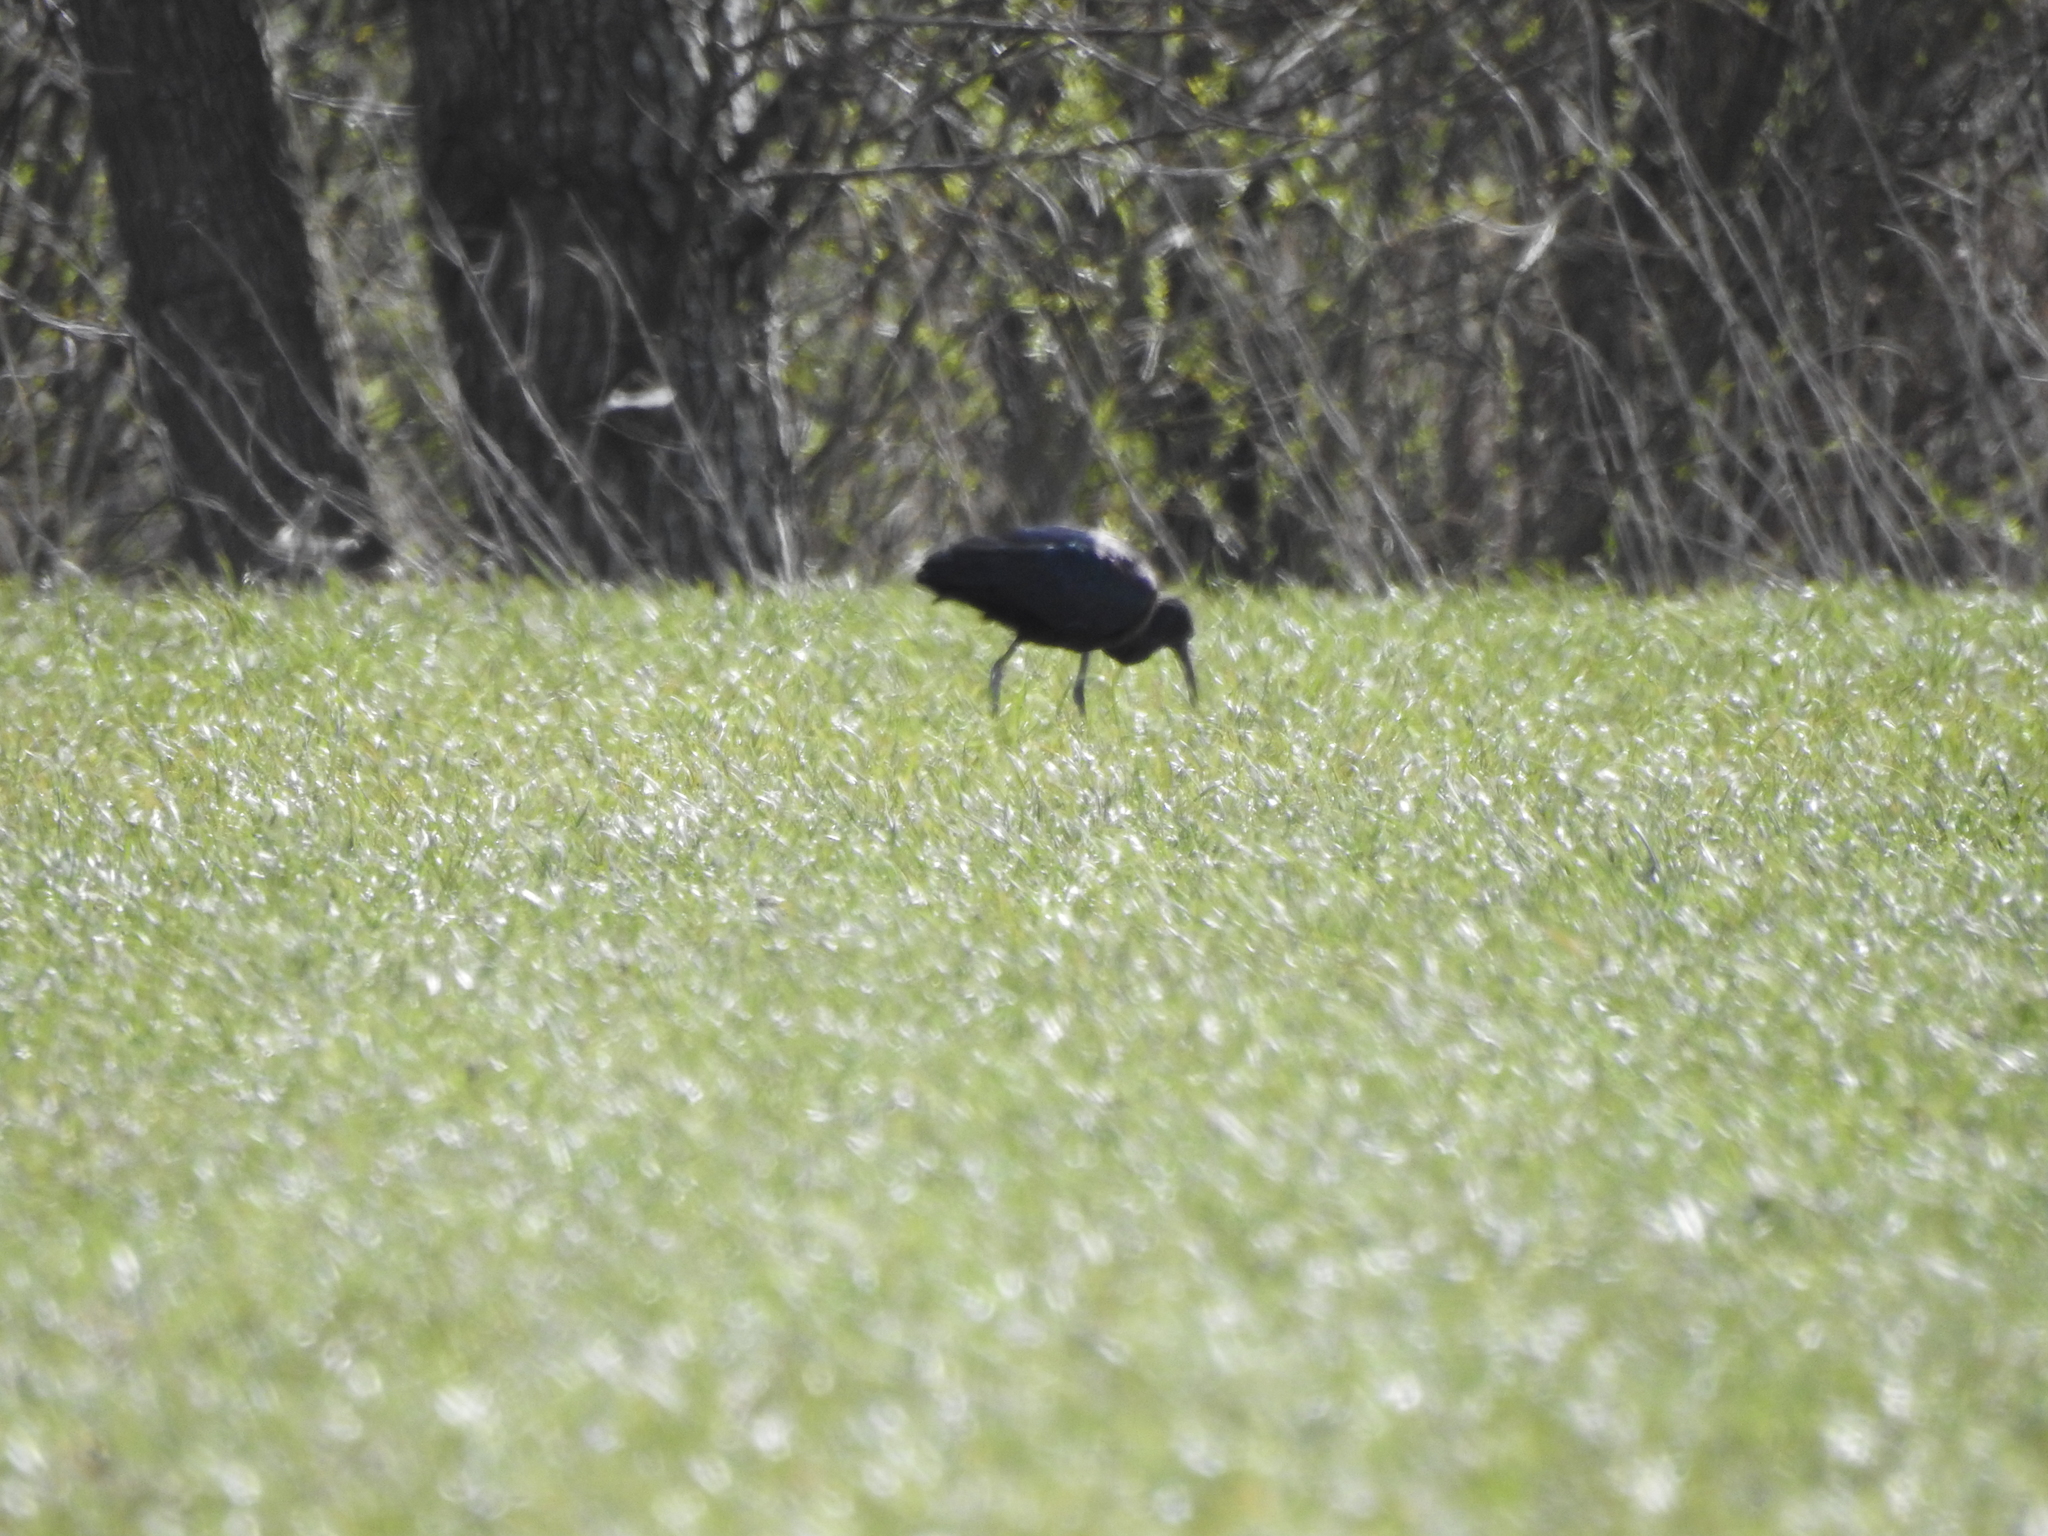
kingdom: Animalia
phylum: Chordata
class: Aves
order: Pelecaniformes
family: Threskiornithidae
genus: Plegadis
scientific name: Plegadis falcinellus
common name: Glossy ibis
